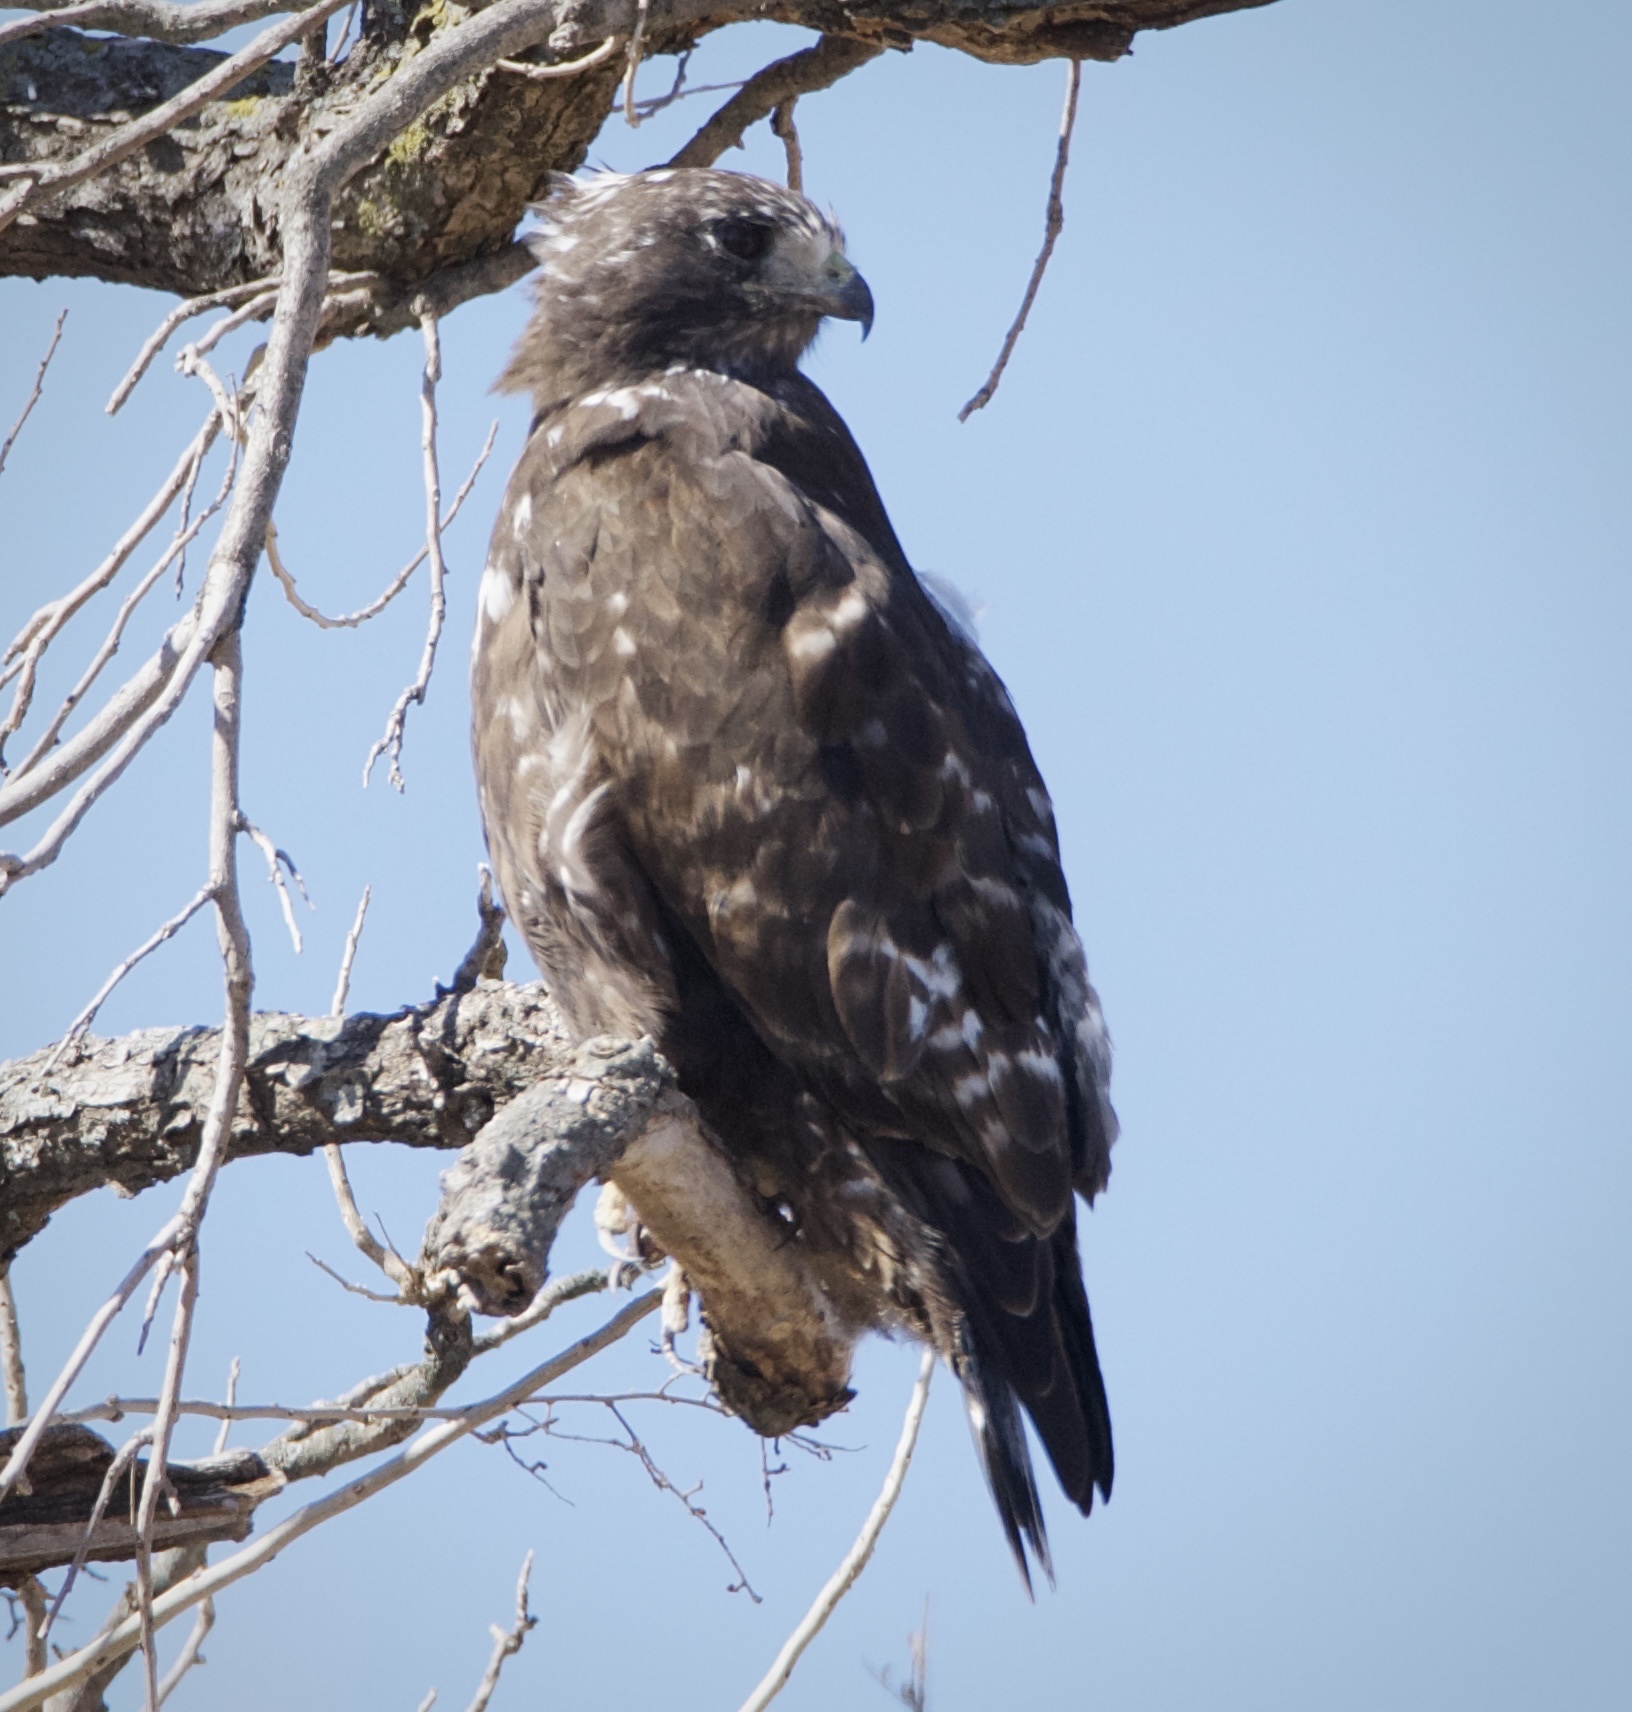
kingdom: Animalia
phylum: Chordata
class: Aves
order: Accipitriformes
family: Accipitridae
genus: Buteo
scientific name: Buteo jamaicensis
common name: Red-tailed hawk
